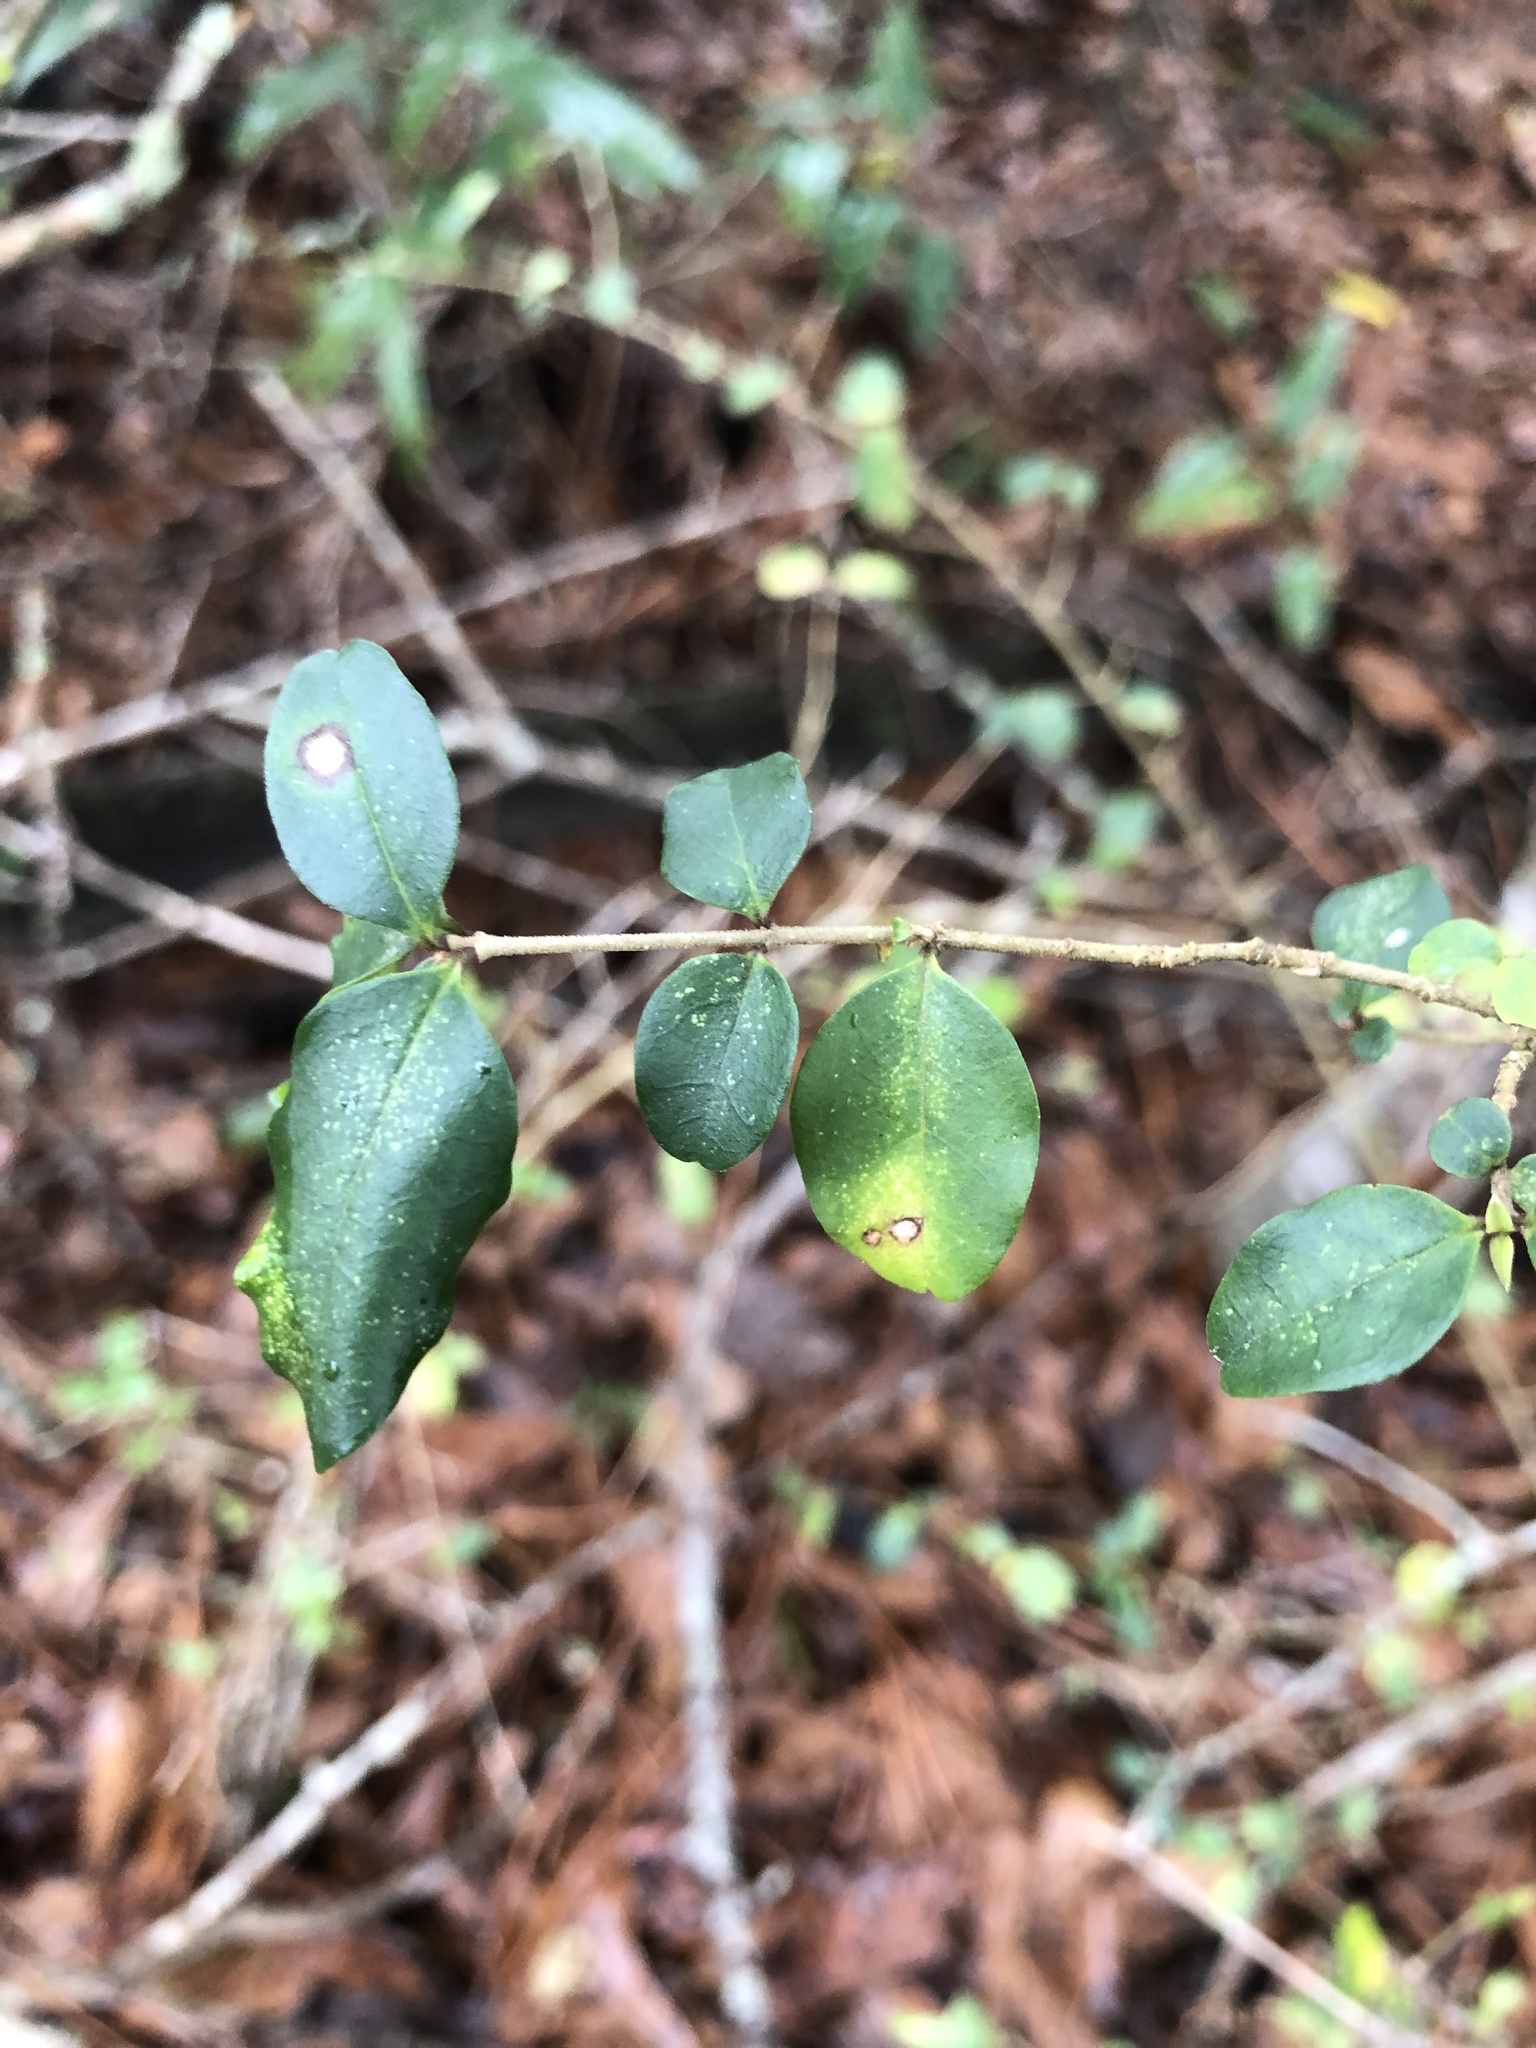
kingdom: Plantae
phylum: Tracheophyta
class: Magnoliopsida
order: Lamiales
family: Oleaceae
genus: Ligustrum
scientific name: Ligustrum sinense
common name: Chinese privet
